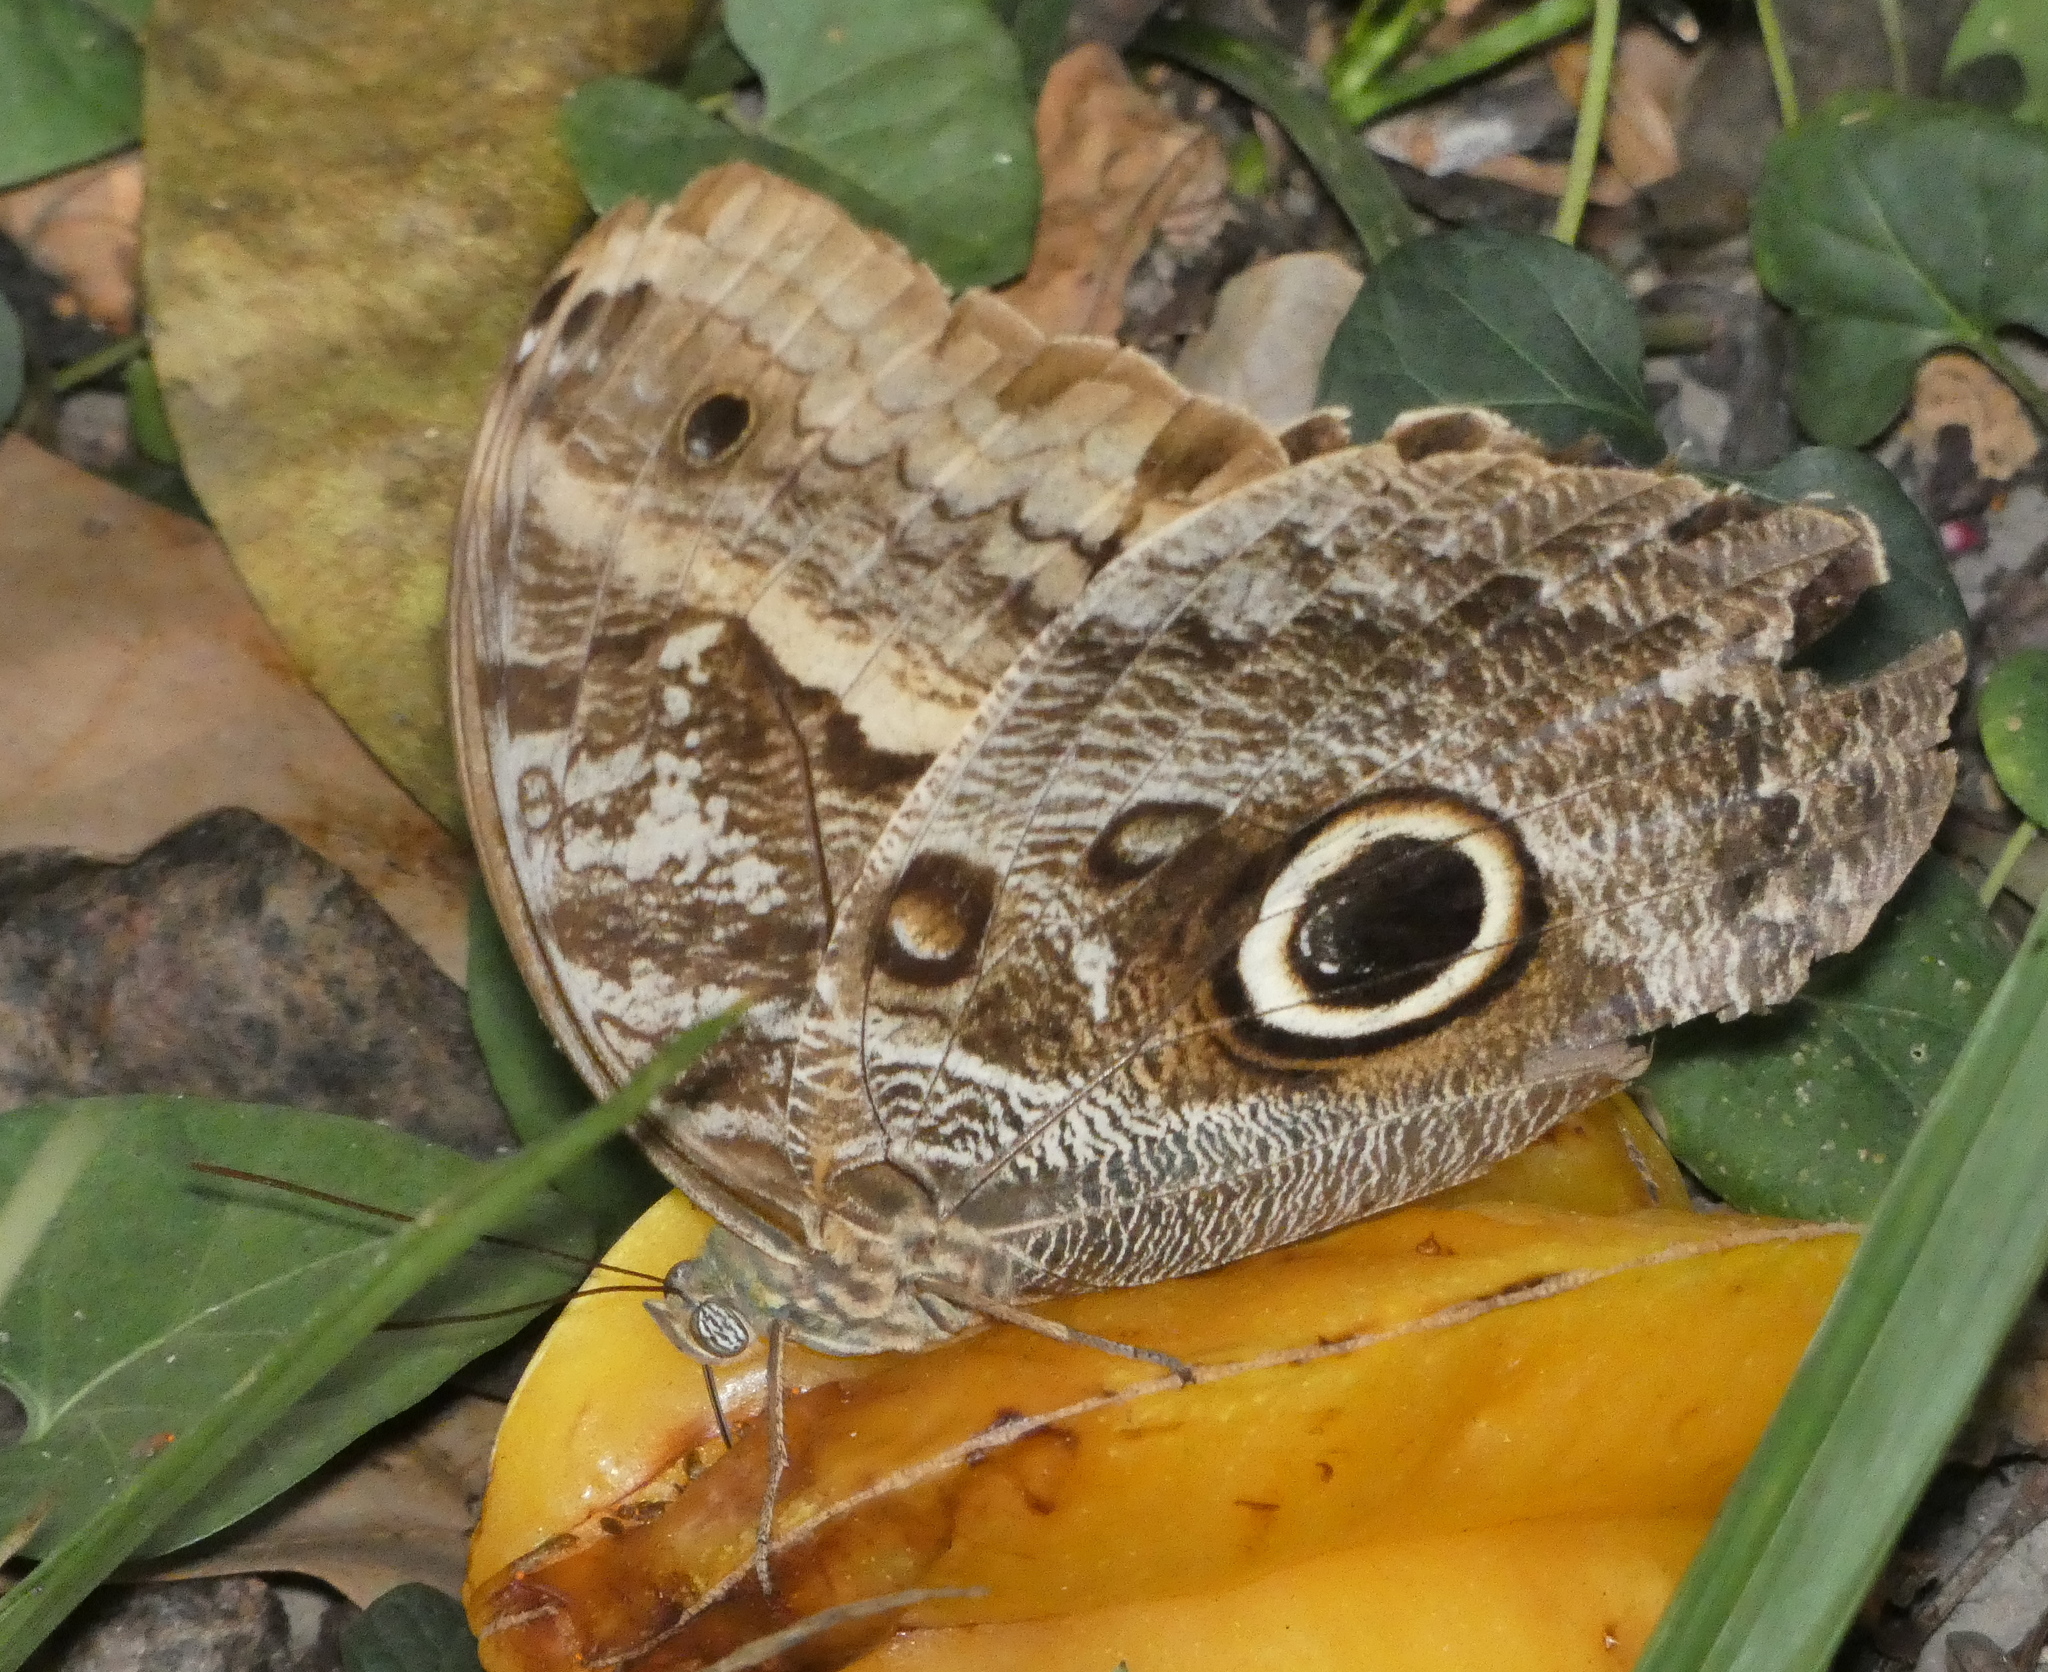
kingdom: Animalia
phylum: Arthropoda
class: Insecta
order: Lepidoptera
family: Nymphalidae
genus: Caligo
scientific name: Caligo teucer
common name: Teucer owl butterfly
